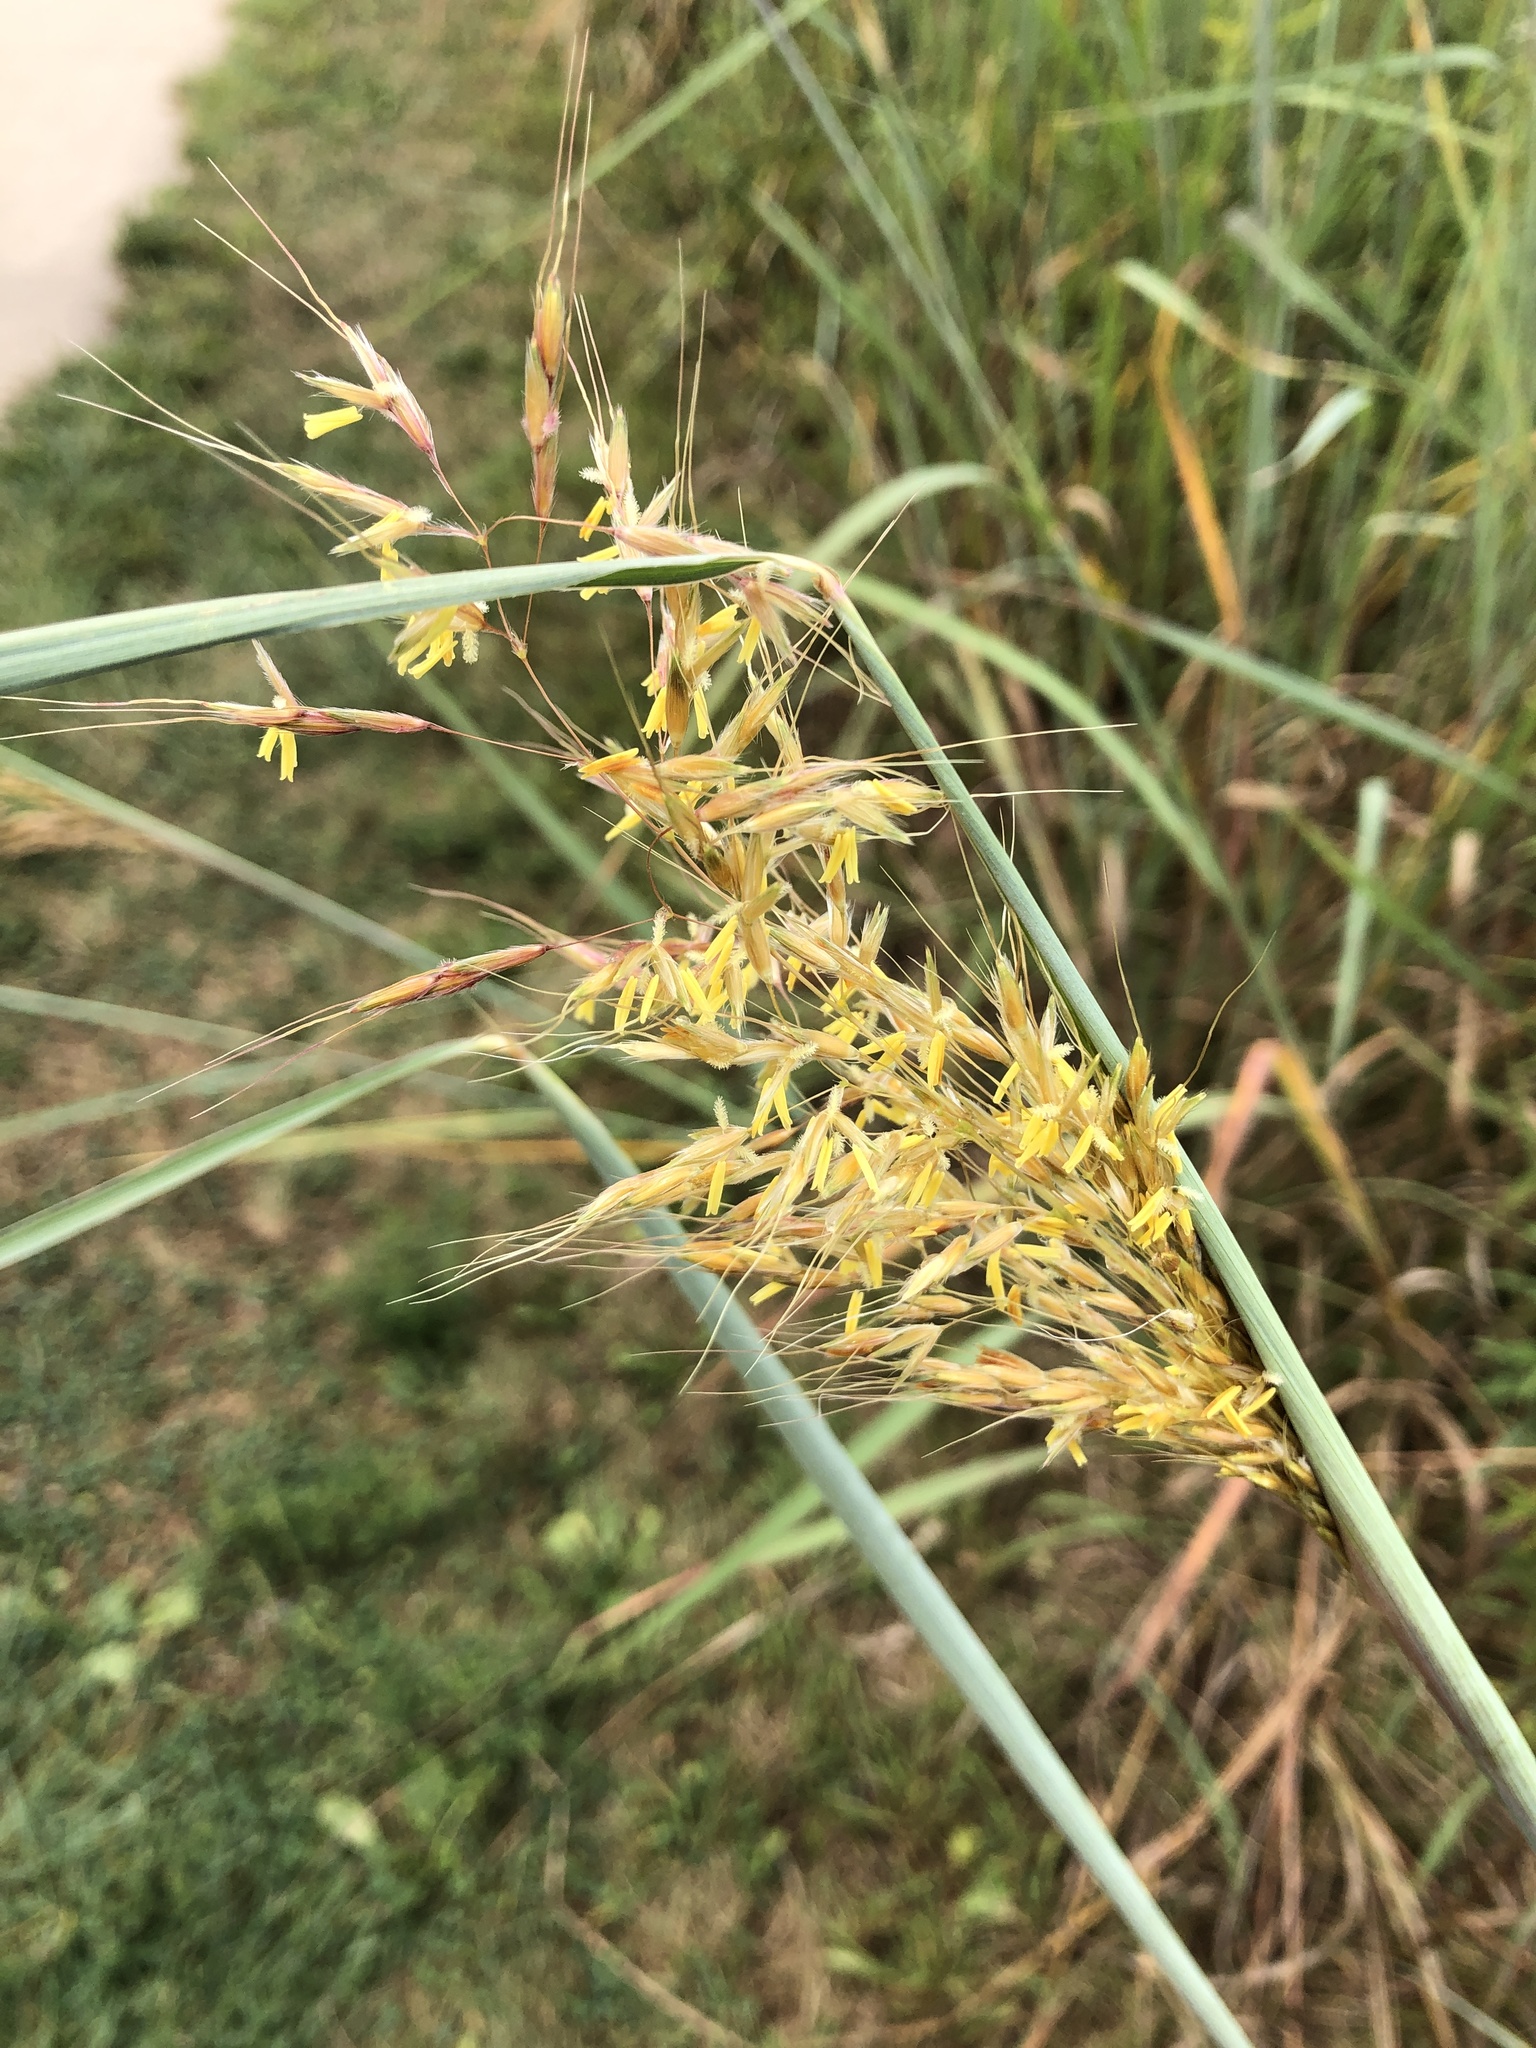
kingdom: Plantae
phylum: Tracheophyta
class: Liliopsida
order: Poales
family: Poaceae
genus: Sorghastrum
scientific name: Sorghastrum nutans
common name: Indian grass
